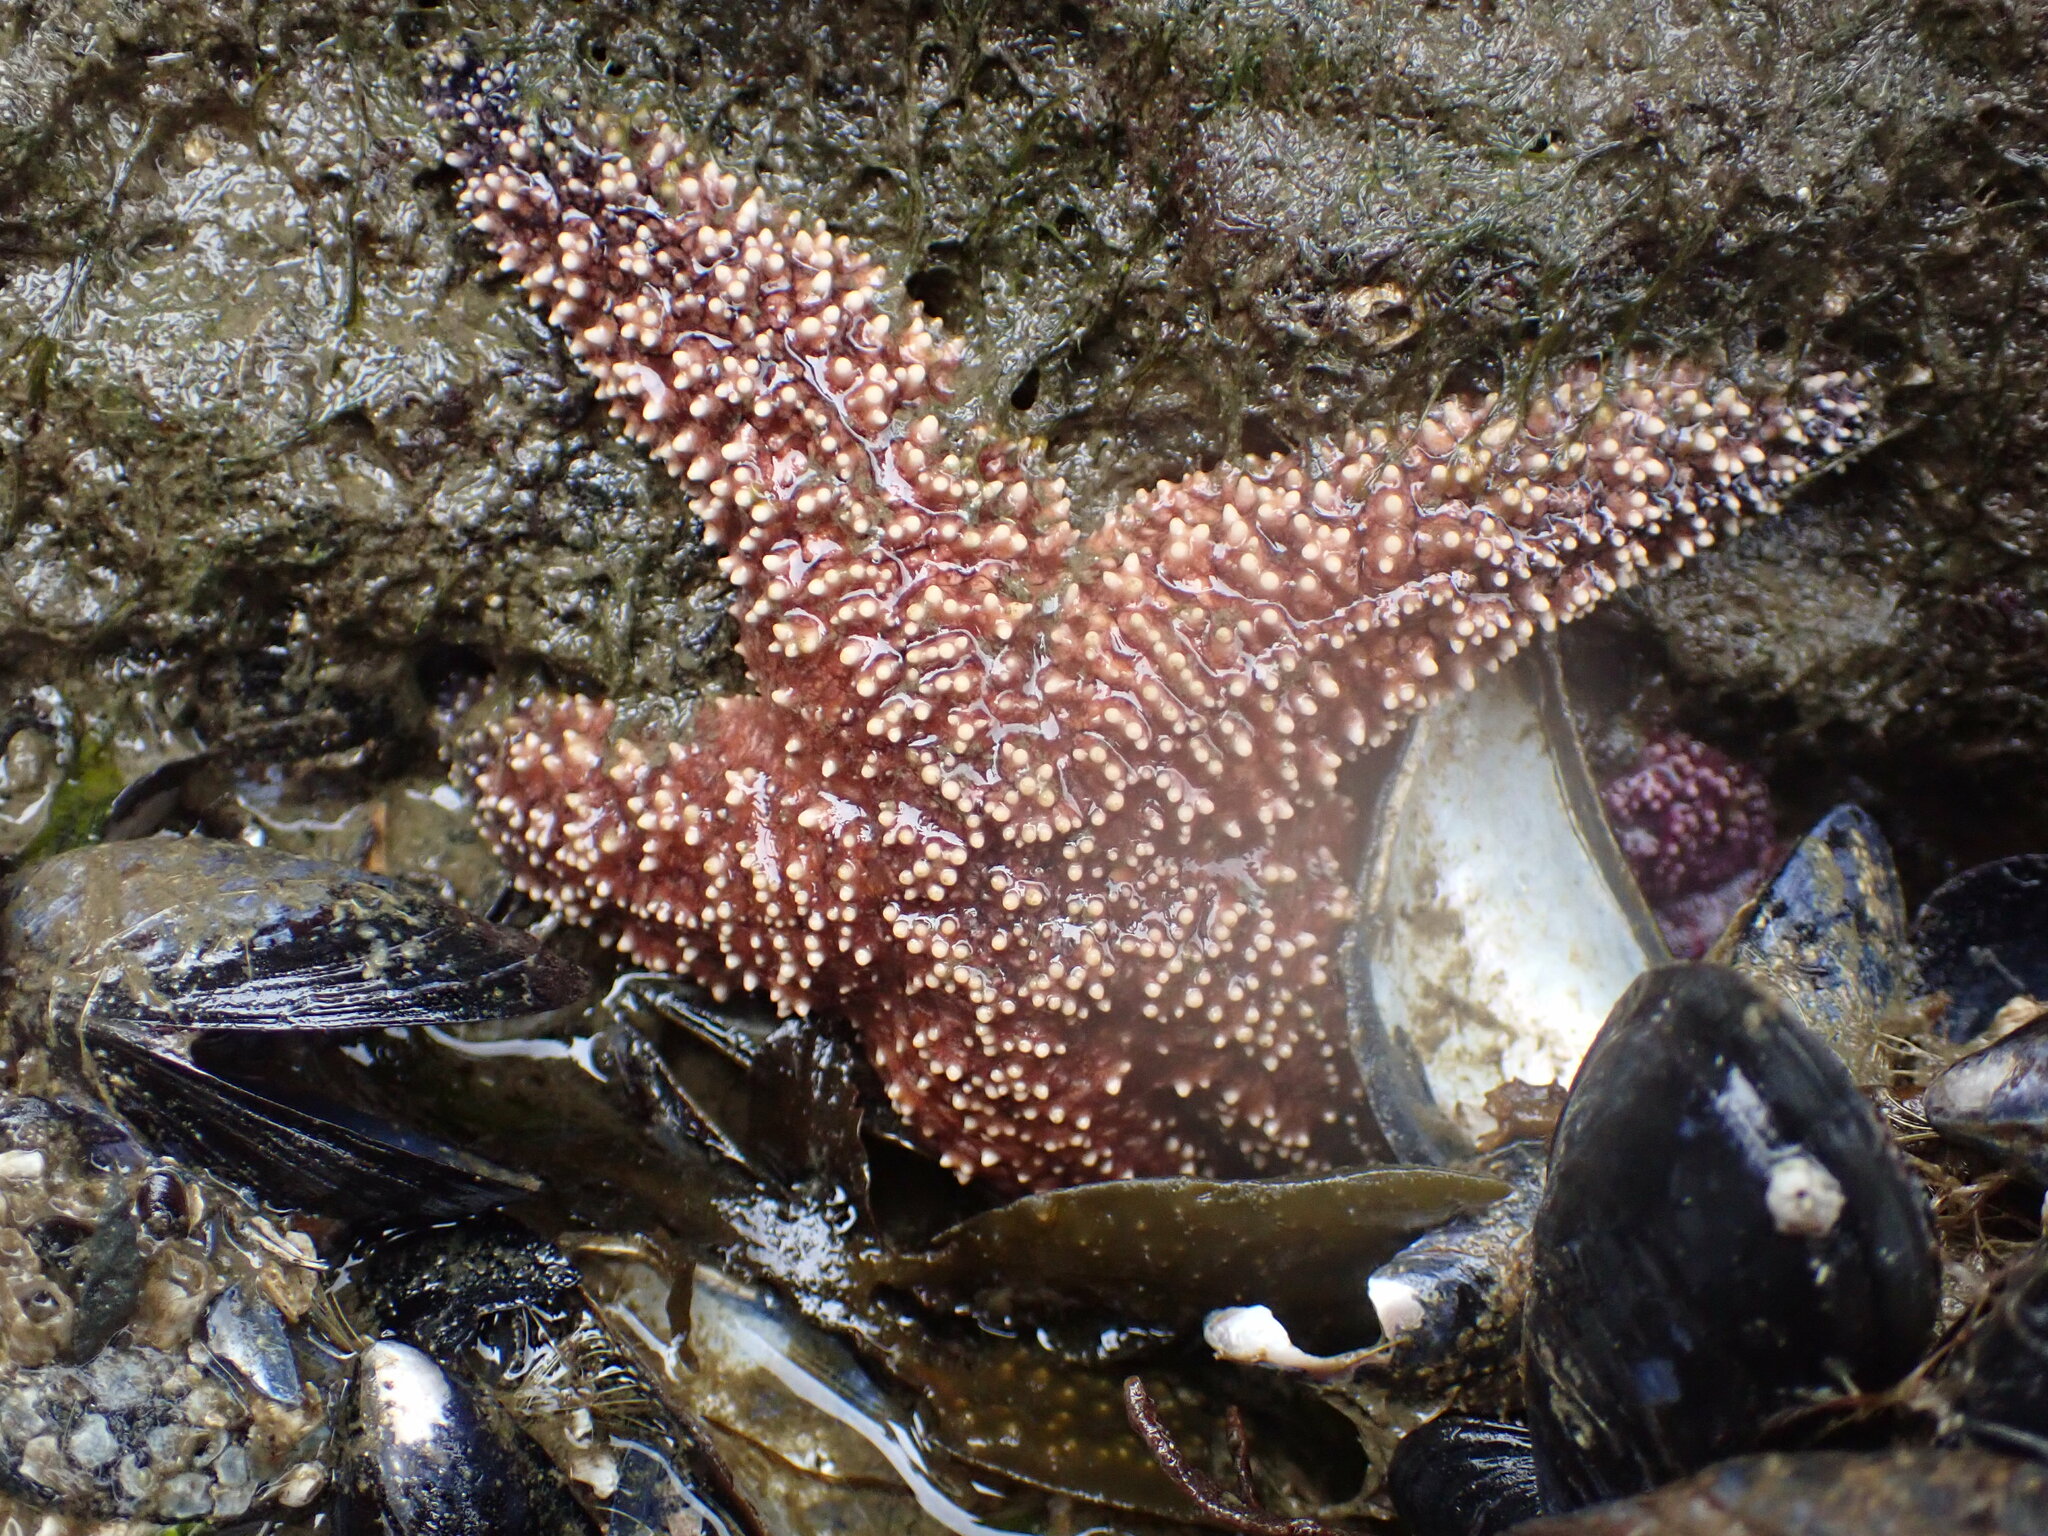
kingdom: Animalia
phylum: Echinodermata
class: Asteroidea
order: Forcipulatida
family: Asteriidae
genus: Pisaster
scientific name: Pisaster ochraceus
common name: Ochre stars
